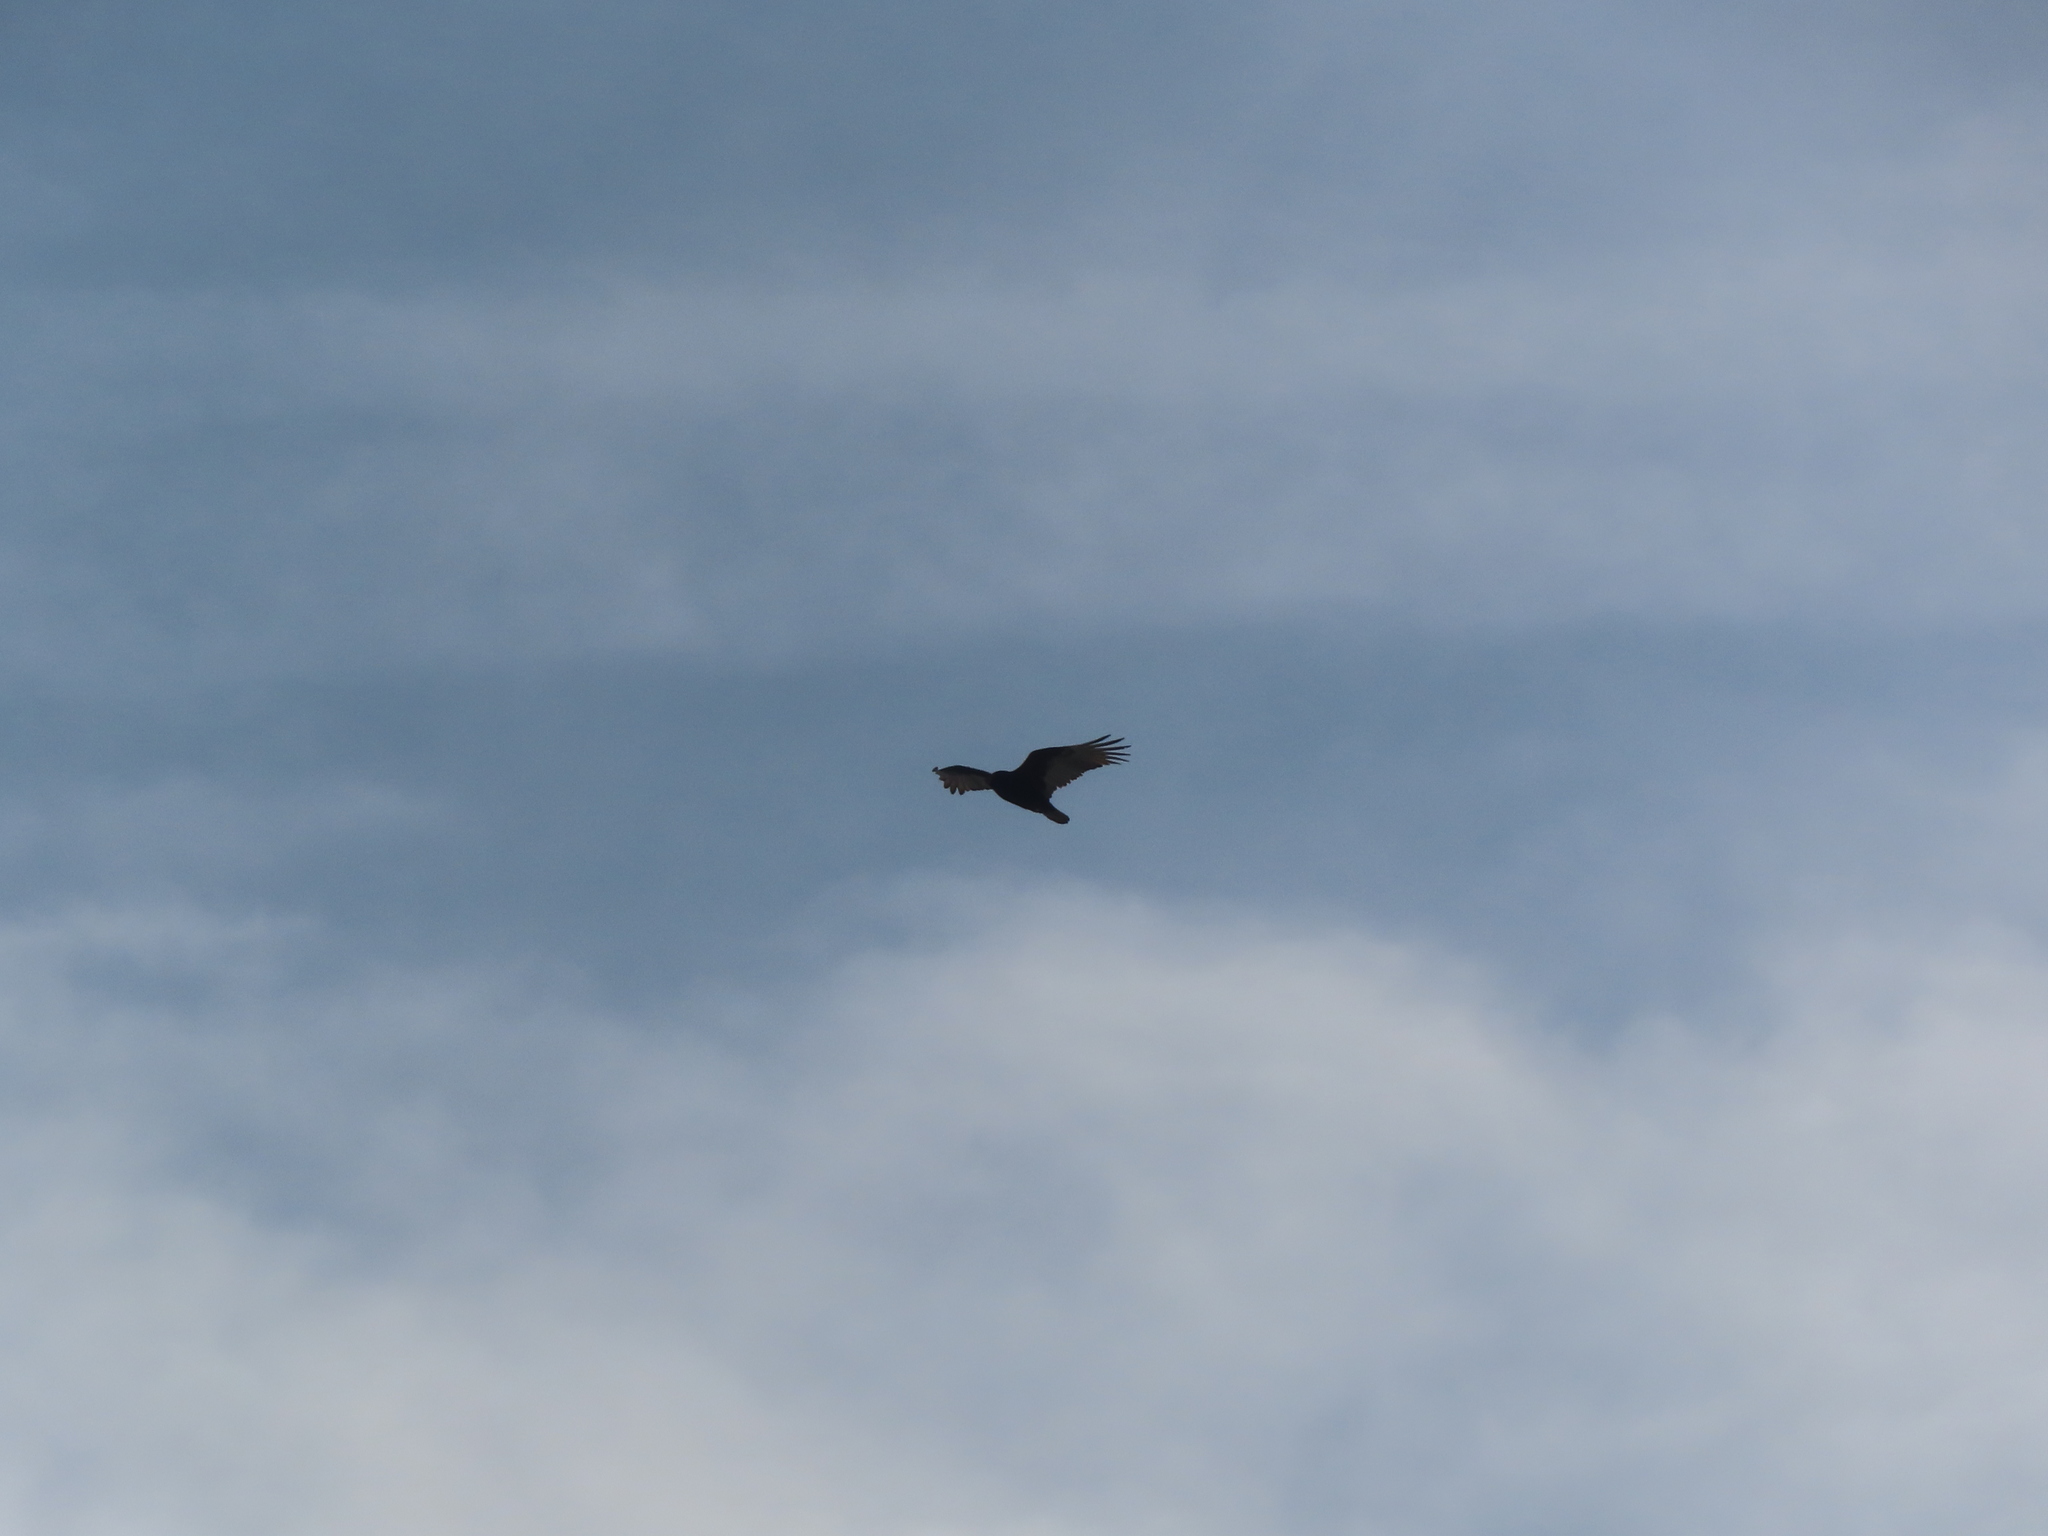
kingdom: Animalia
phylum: Chordata
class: Aves
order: Accipitriformes
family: Cathartidae
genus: Cathartes
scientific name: Cathartes aura
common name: Turkey vulture
